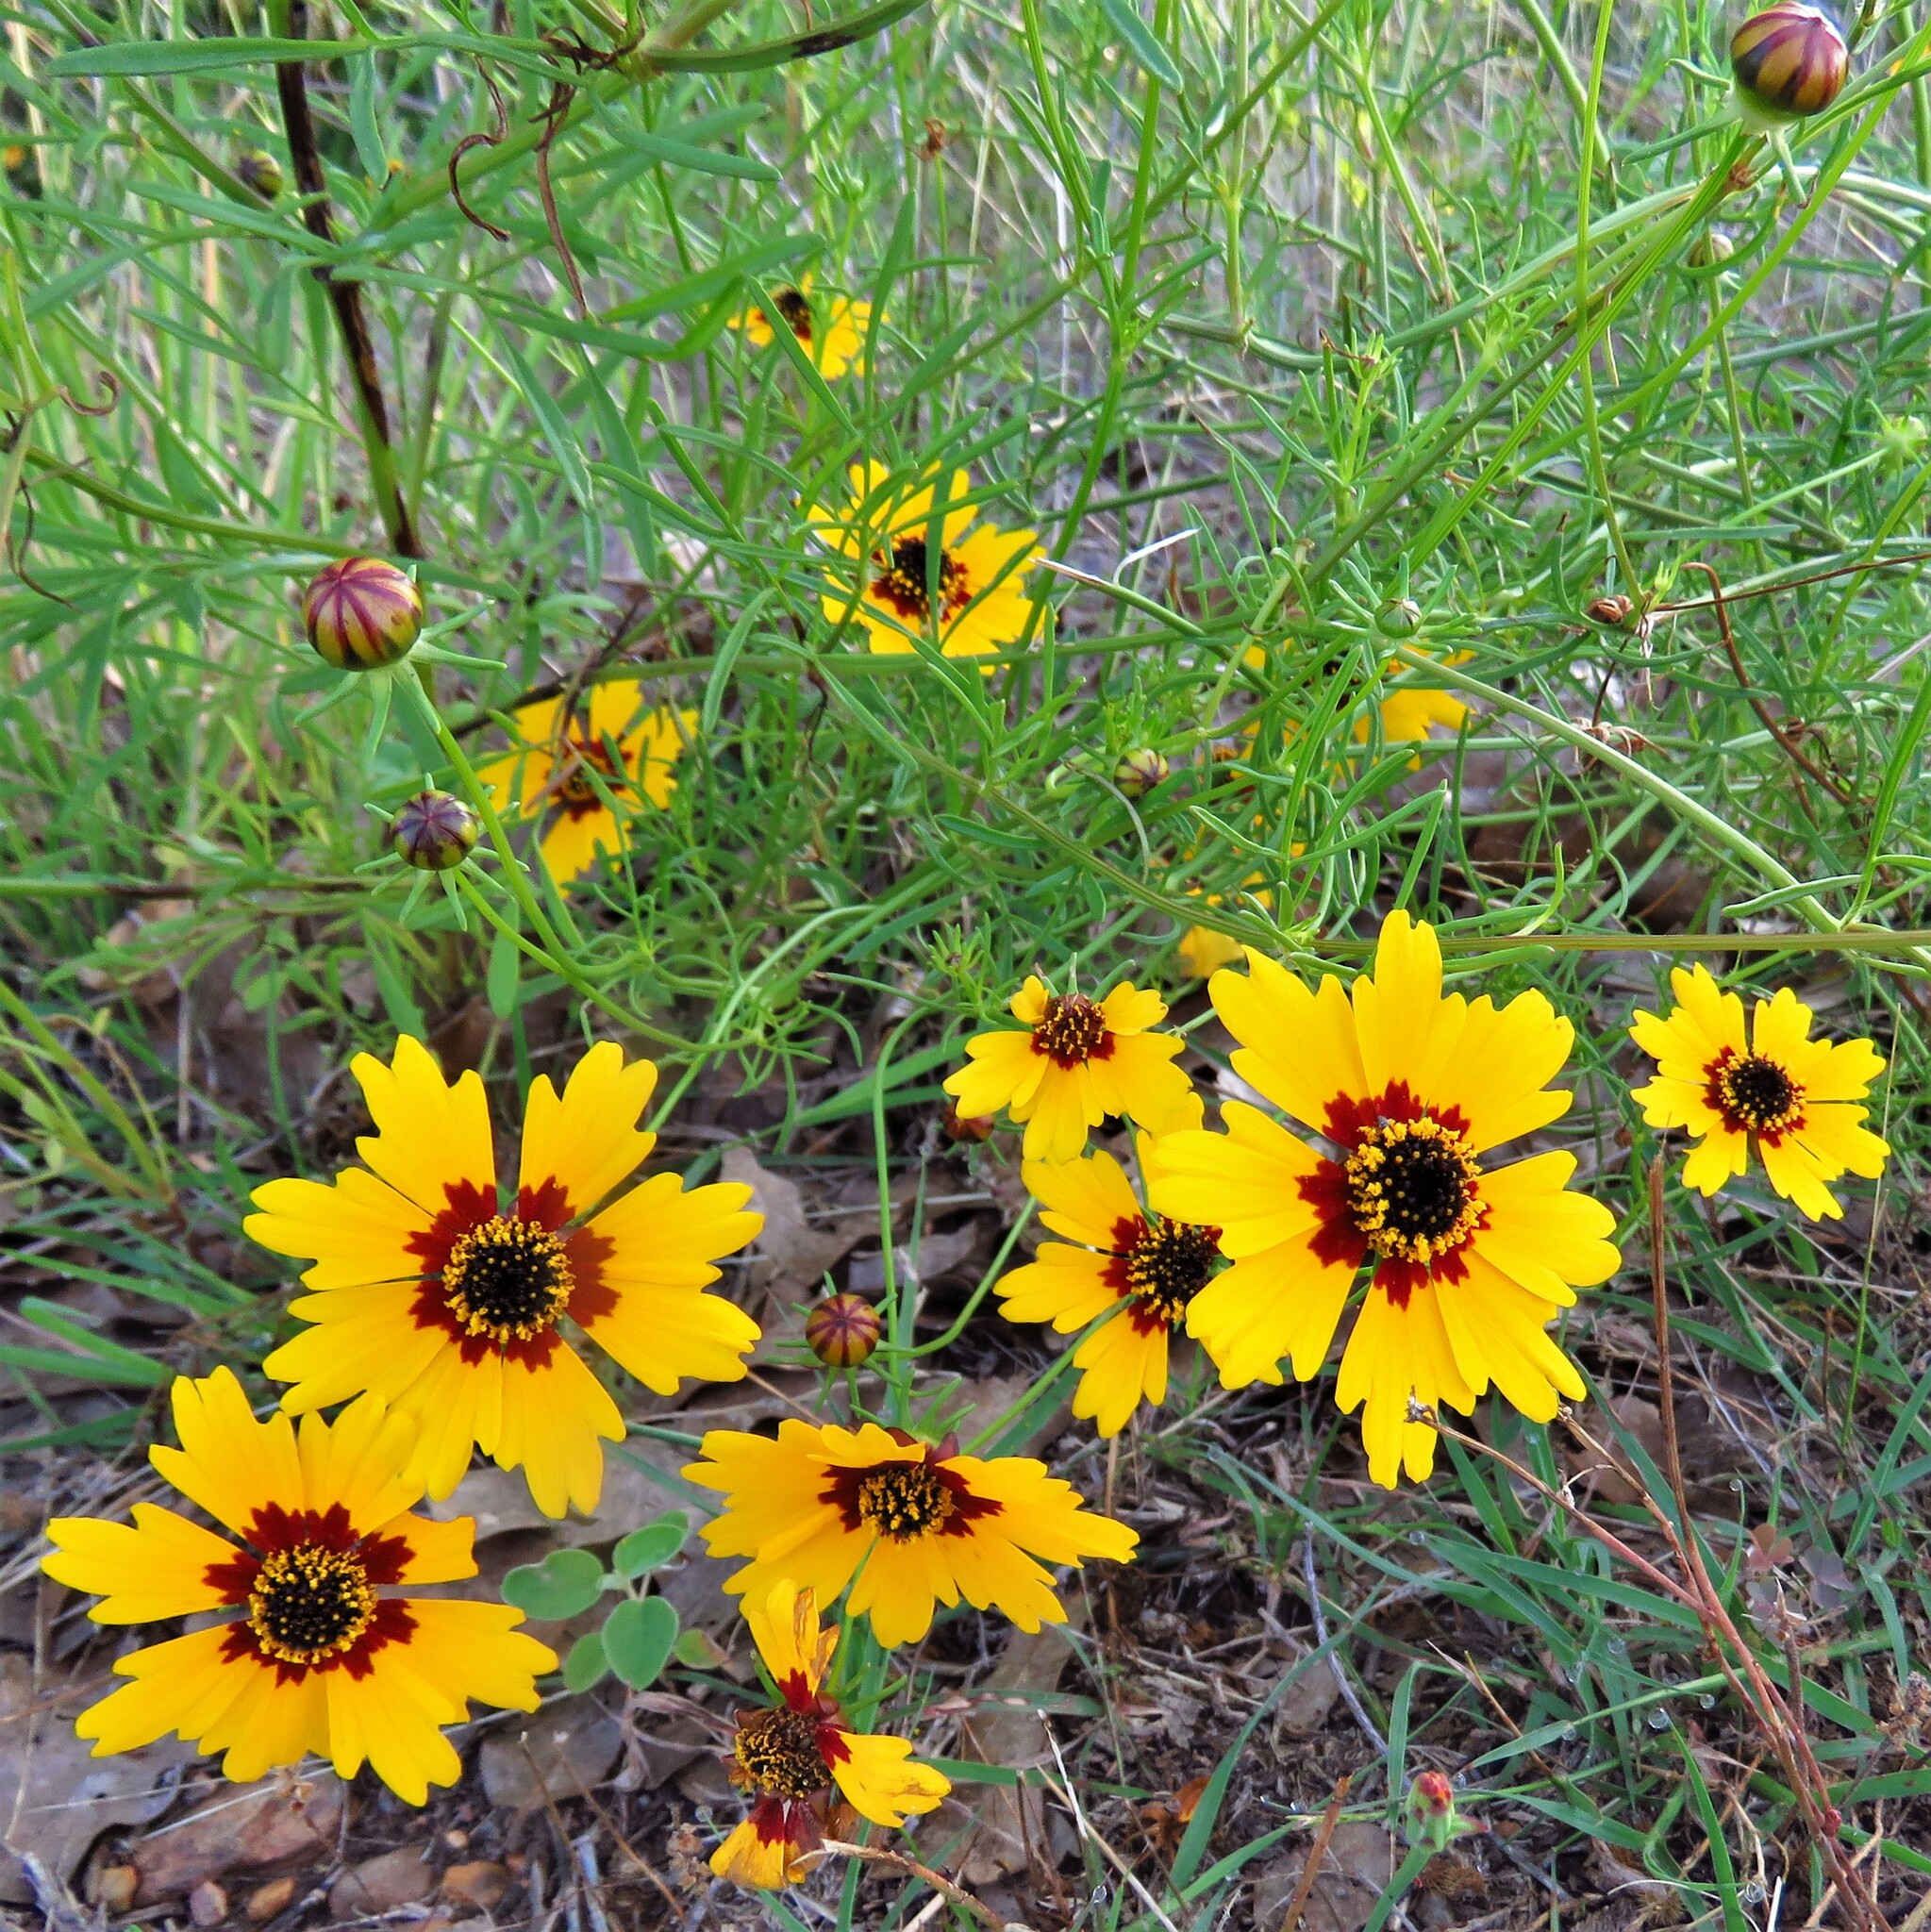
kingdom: Plantae
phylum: Tracheophyta
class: Magnoliopsida
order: Asterales
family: Asteraceae
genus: Coreopsis
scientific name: Coreopsis basalis
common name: Golden-mane coreopsis
